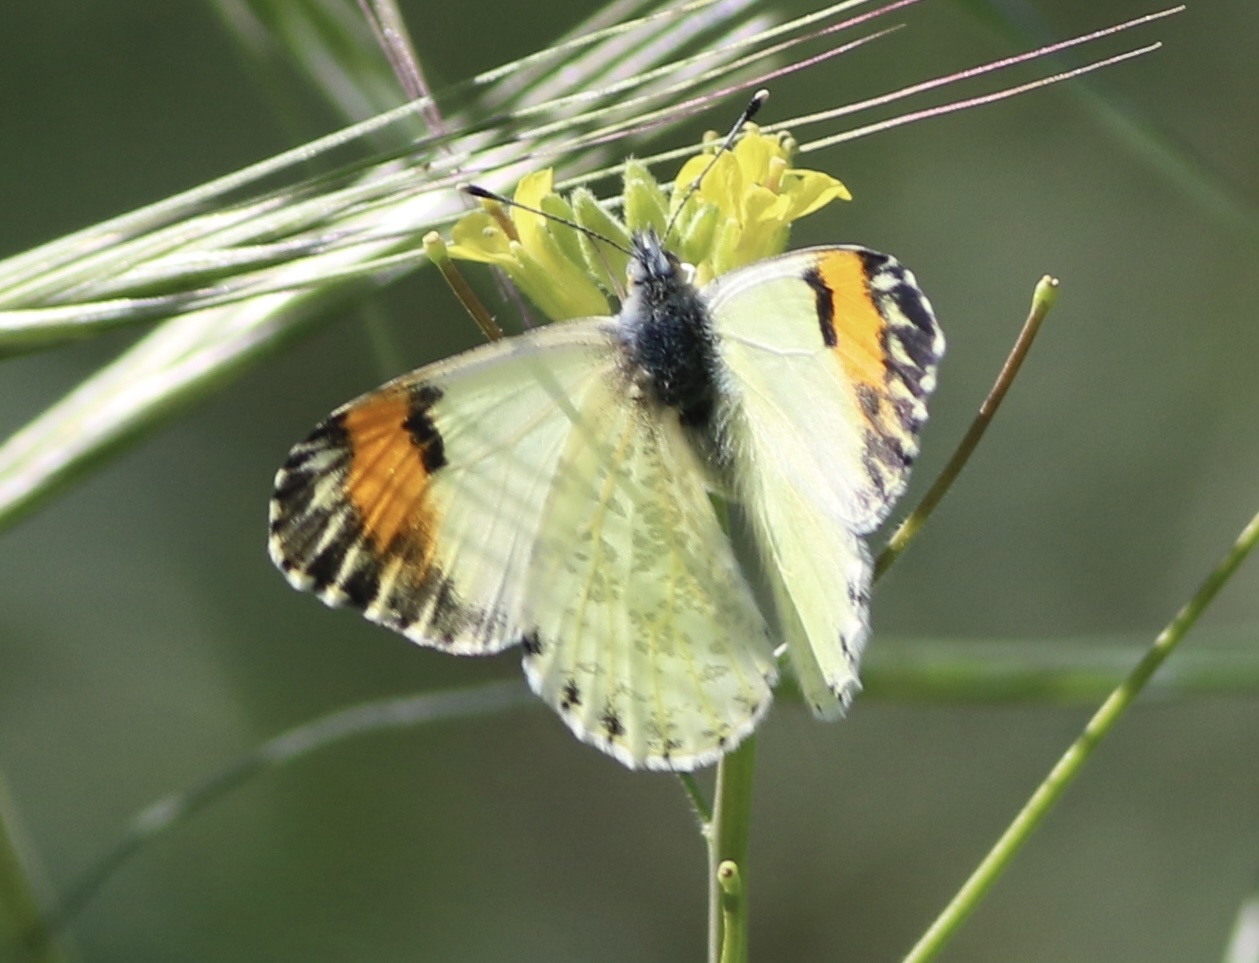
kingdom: Animalia
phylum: Arthropoda
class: Insecta
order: Lepidoptera
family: Pieridae
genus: Anthocharis
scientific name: Anthocharis sara
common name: Sara's orangetip
